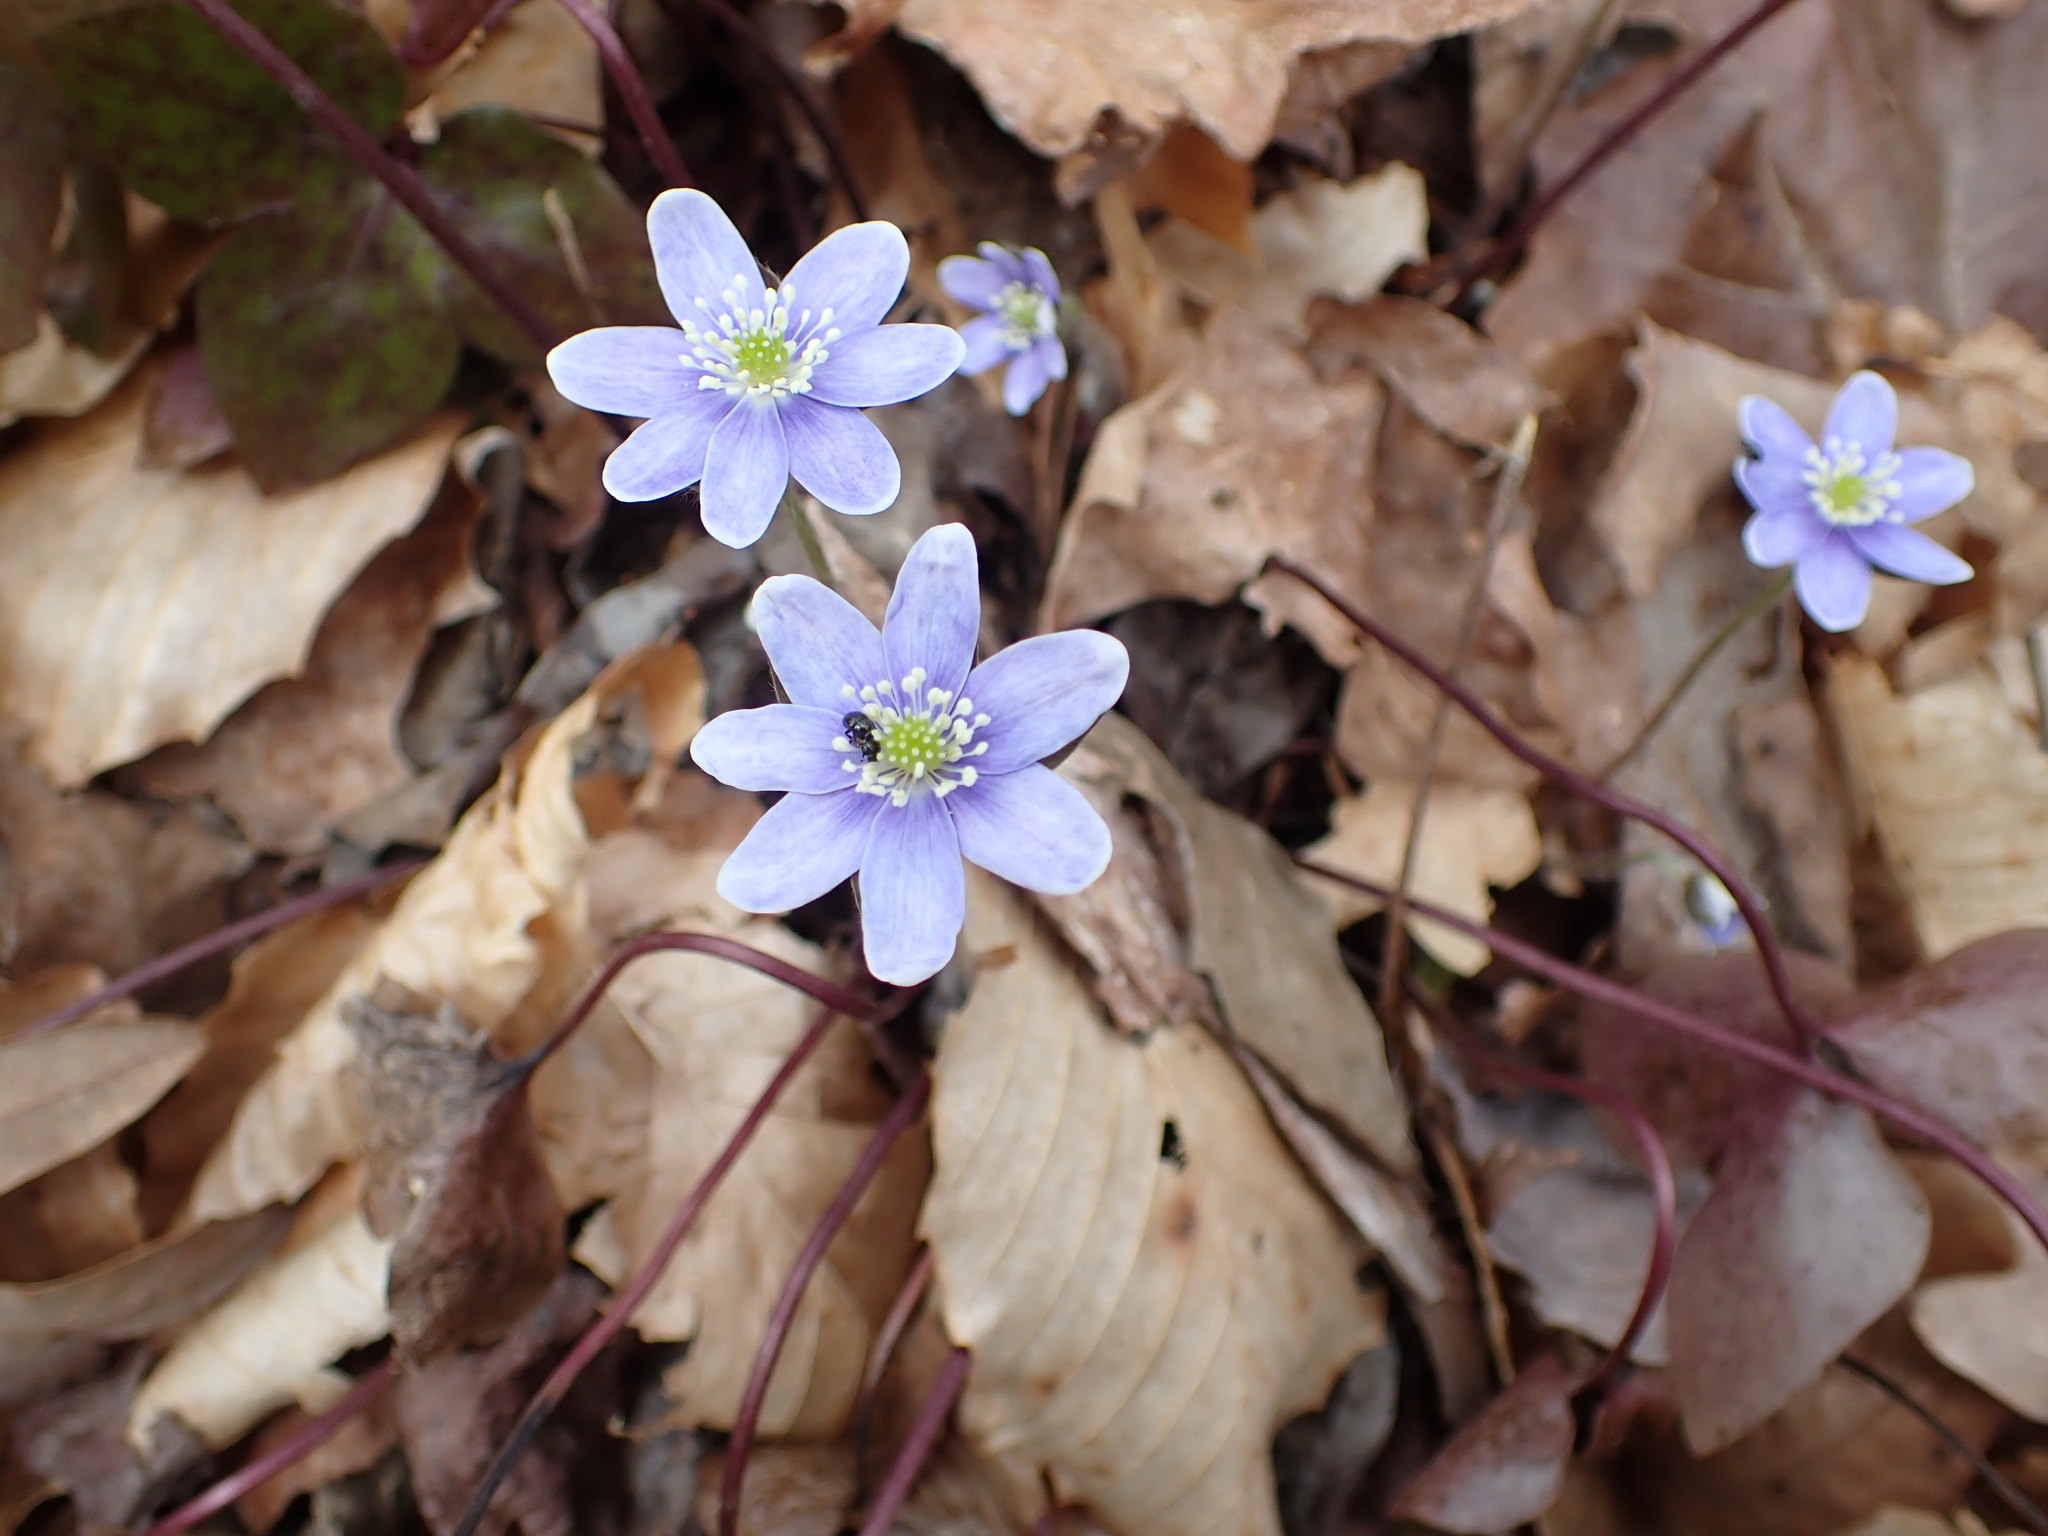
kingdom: Plantae
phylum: Tracheophyta
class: Magnoliopsida
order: Ranunculales
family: Ranunculaceae
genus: Hepatica
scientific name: Hepatica acutiloba
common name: Sharp-lobed hepatica
